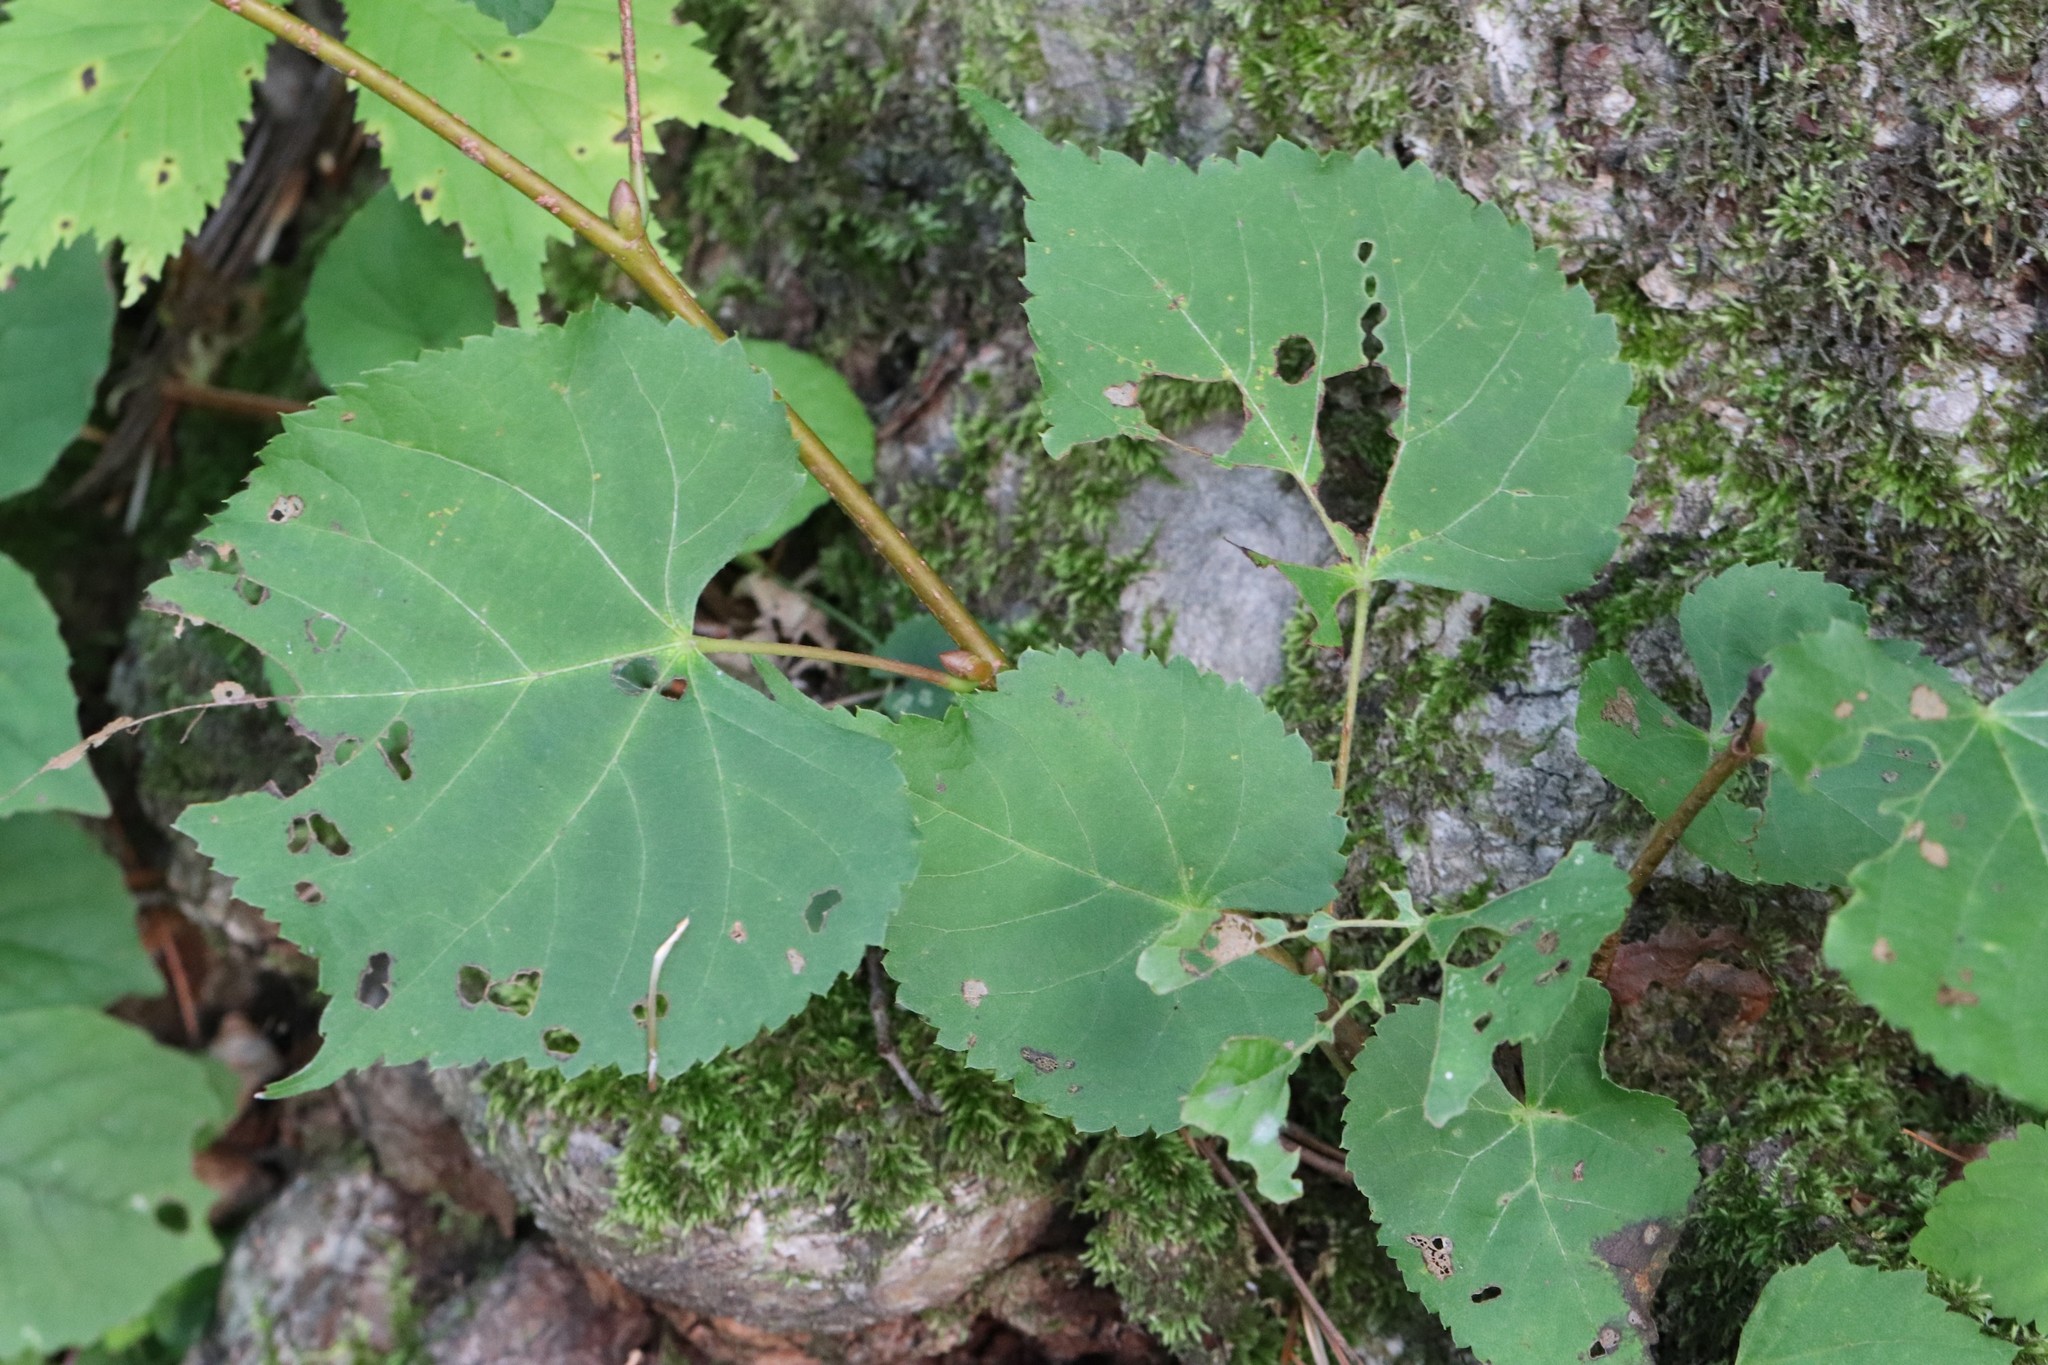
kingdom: Plantae
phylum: Tracheophyta
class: Magnoliopsida
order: Malvales
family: Malvaceae
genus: Tilia
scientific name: Tilia amurensis
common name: Amur lime
